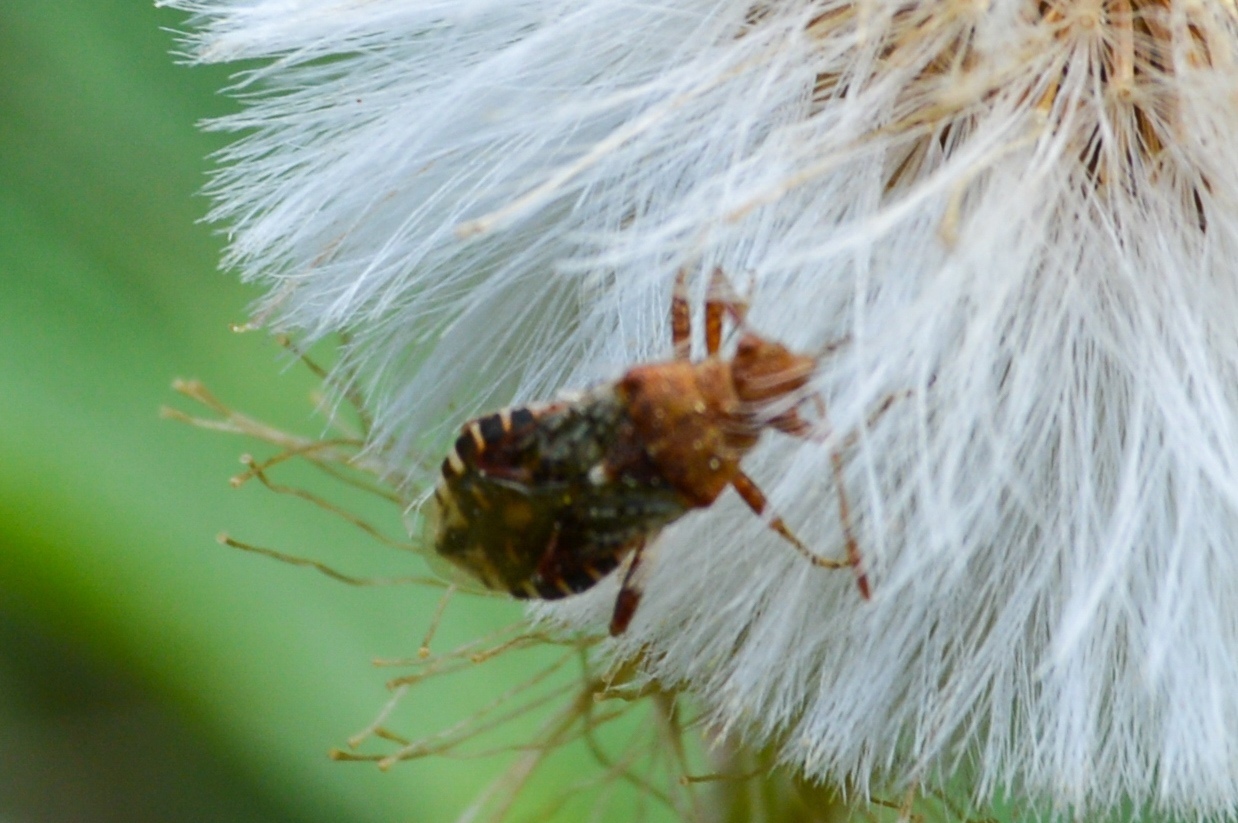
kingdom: Animalia
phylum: Arthropoda
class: Insecta
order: Hemiptera
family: Rhopalidae
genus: Rhopalus
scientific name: Rhopalus subrufus
